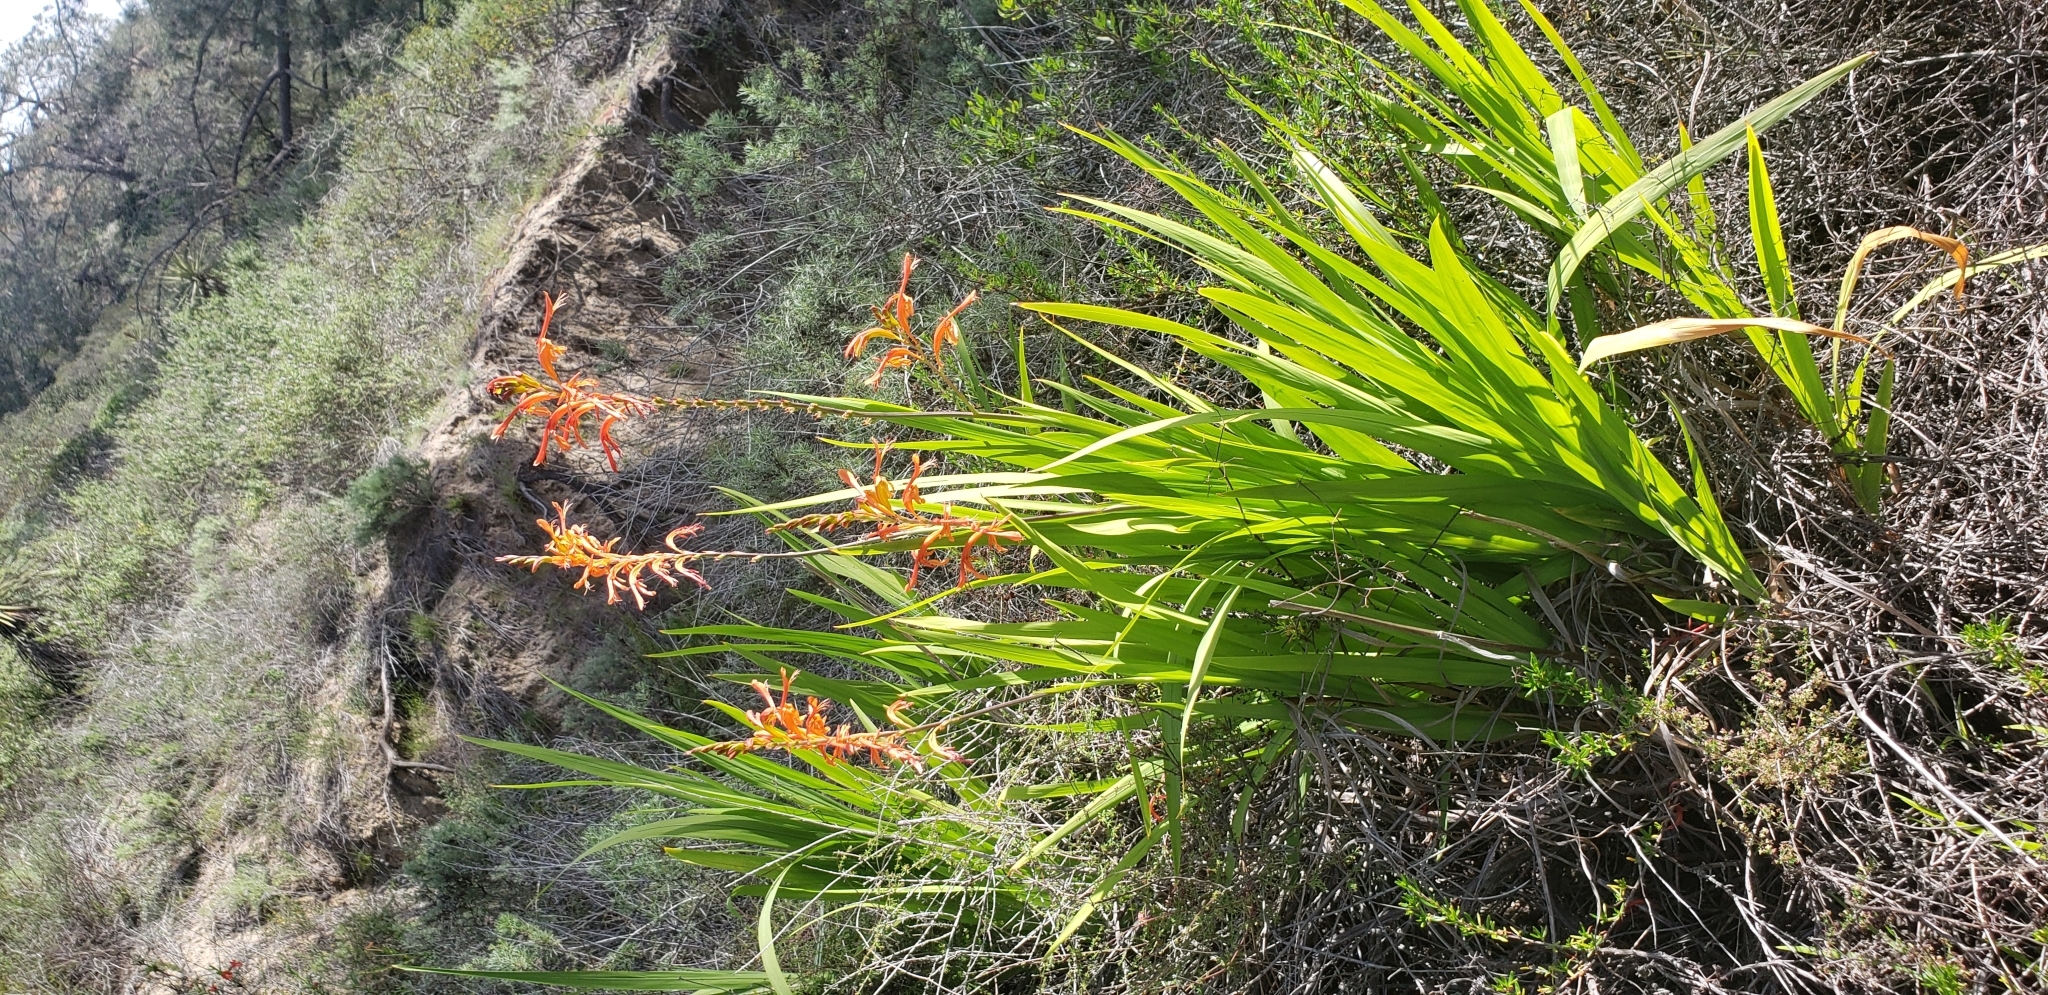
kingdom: Plantae
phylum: Tracheophyta
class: Liliopsida
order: Asparagales
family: Iridaceae
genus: Chasmanthe
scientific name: Chasmanthe floribunda
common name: African cornflag
